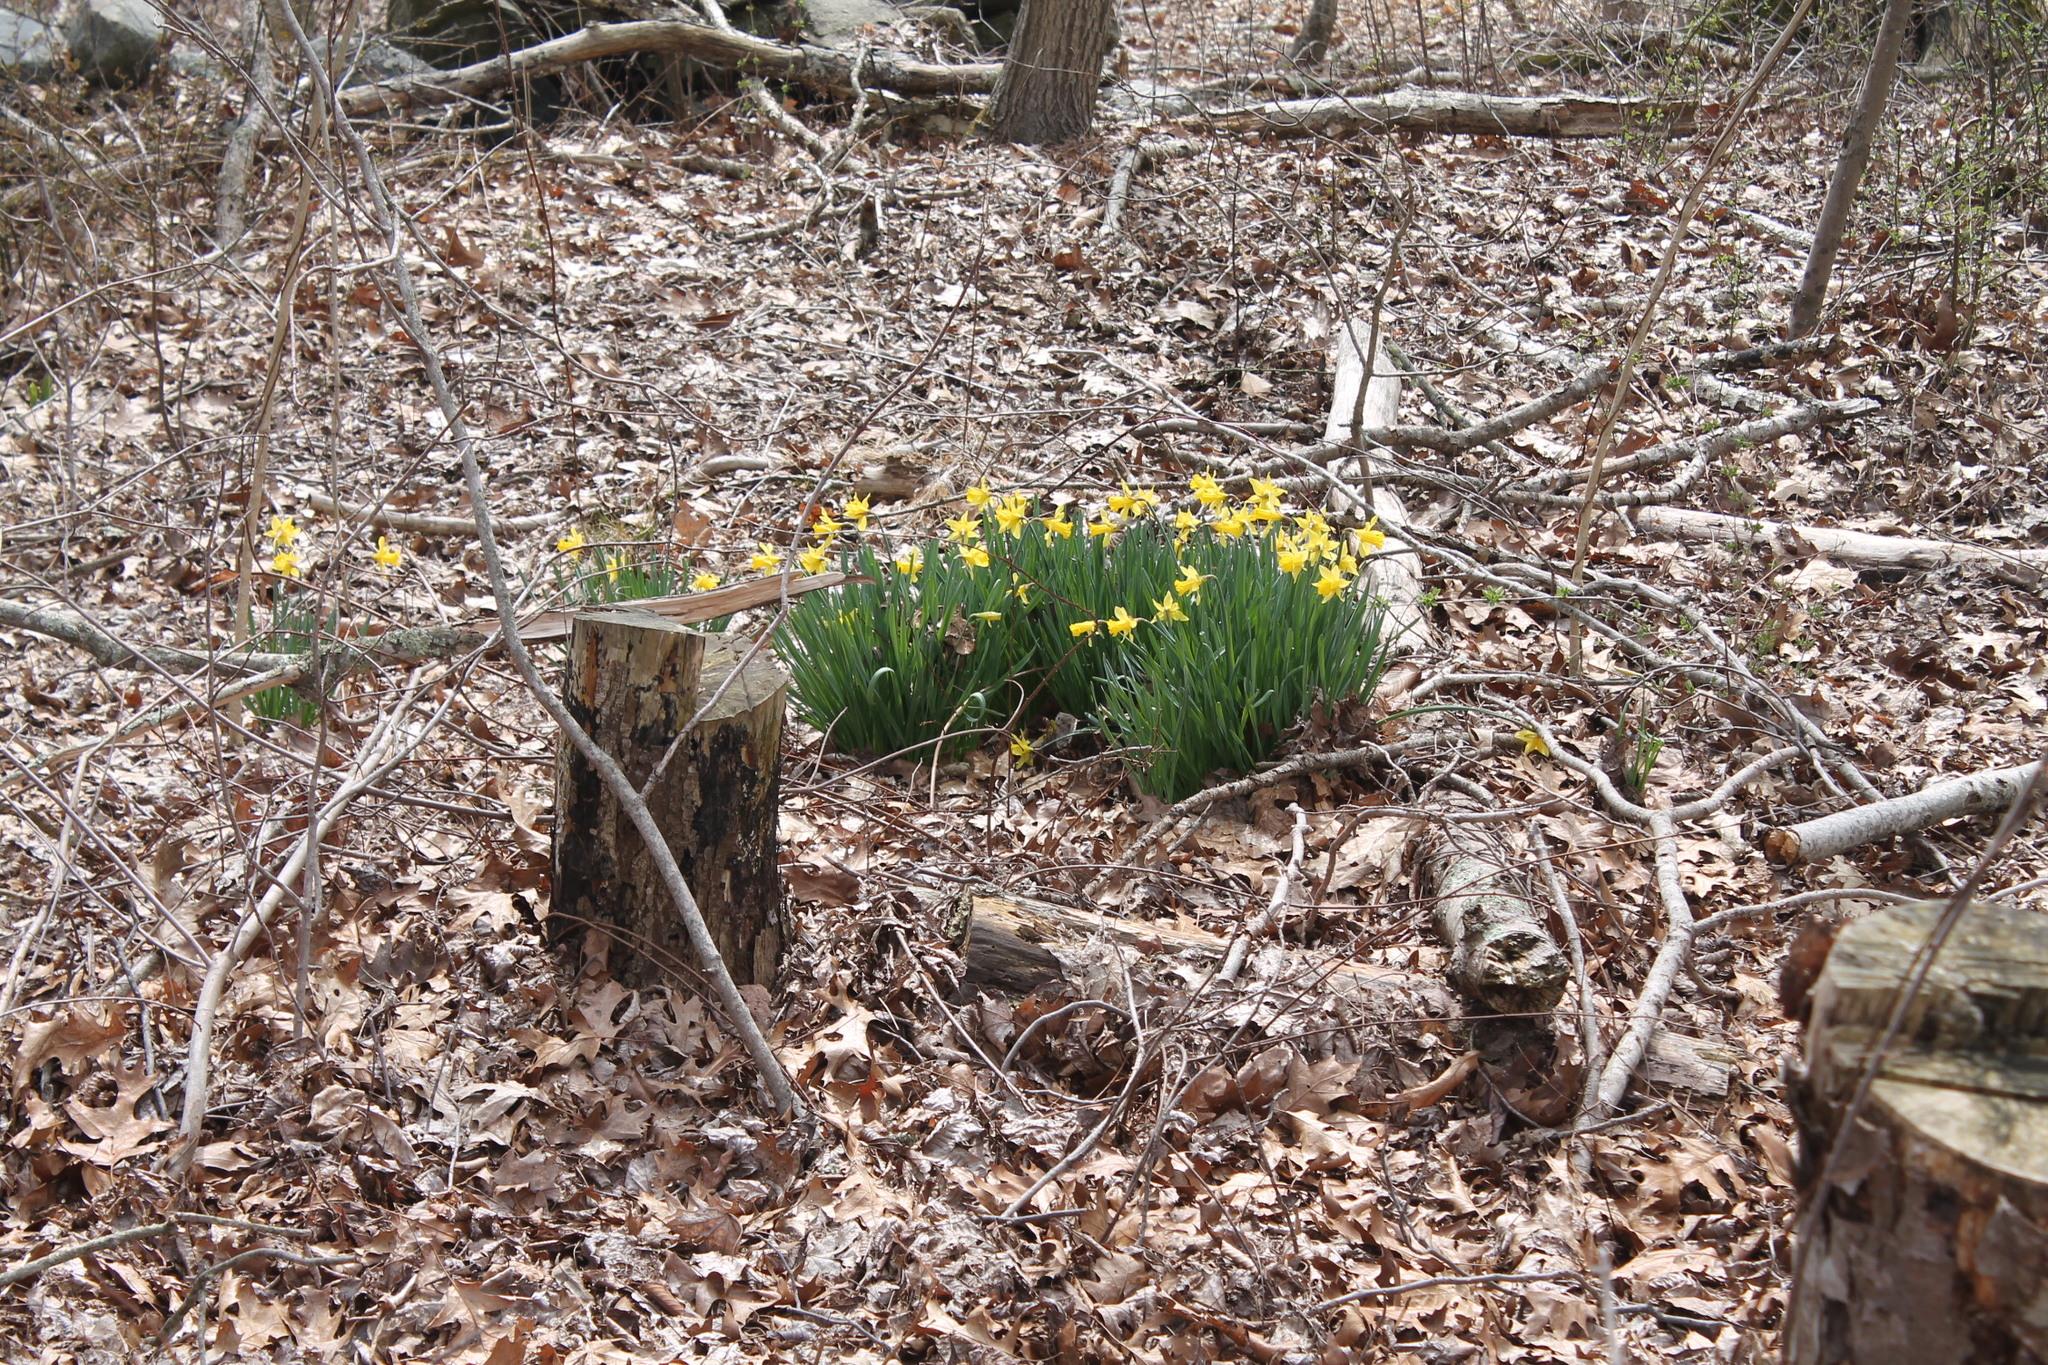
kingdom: Plantae
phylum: Tracheophyta
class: Liliopsida
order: Asparagales
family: Amaryllidaceae
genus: Narcissus
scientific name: Narcissus pseudonarcissus
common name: Daffodil
